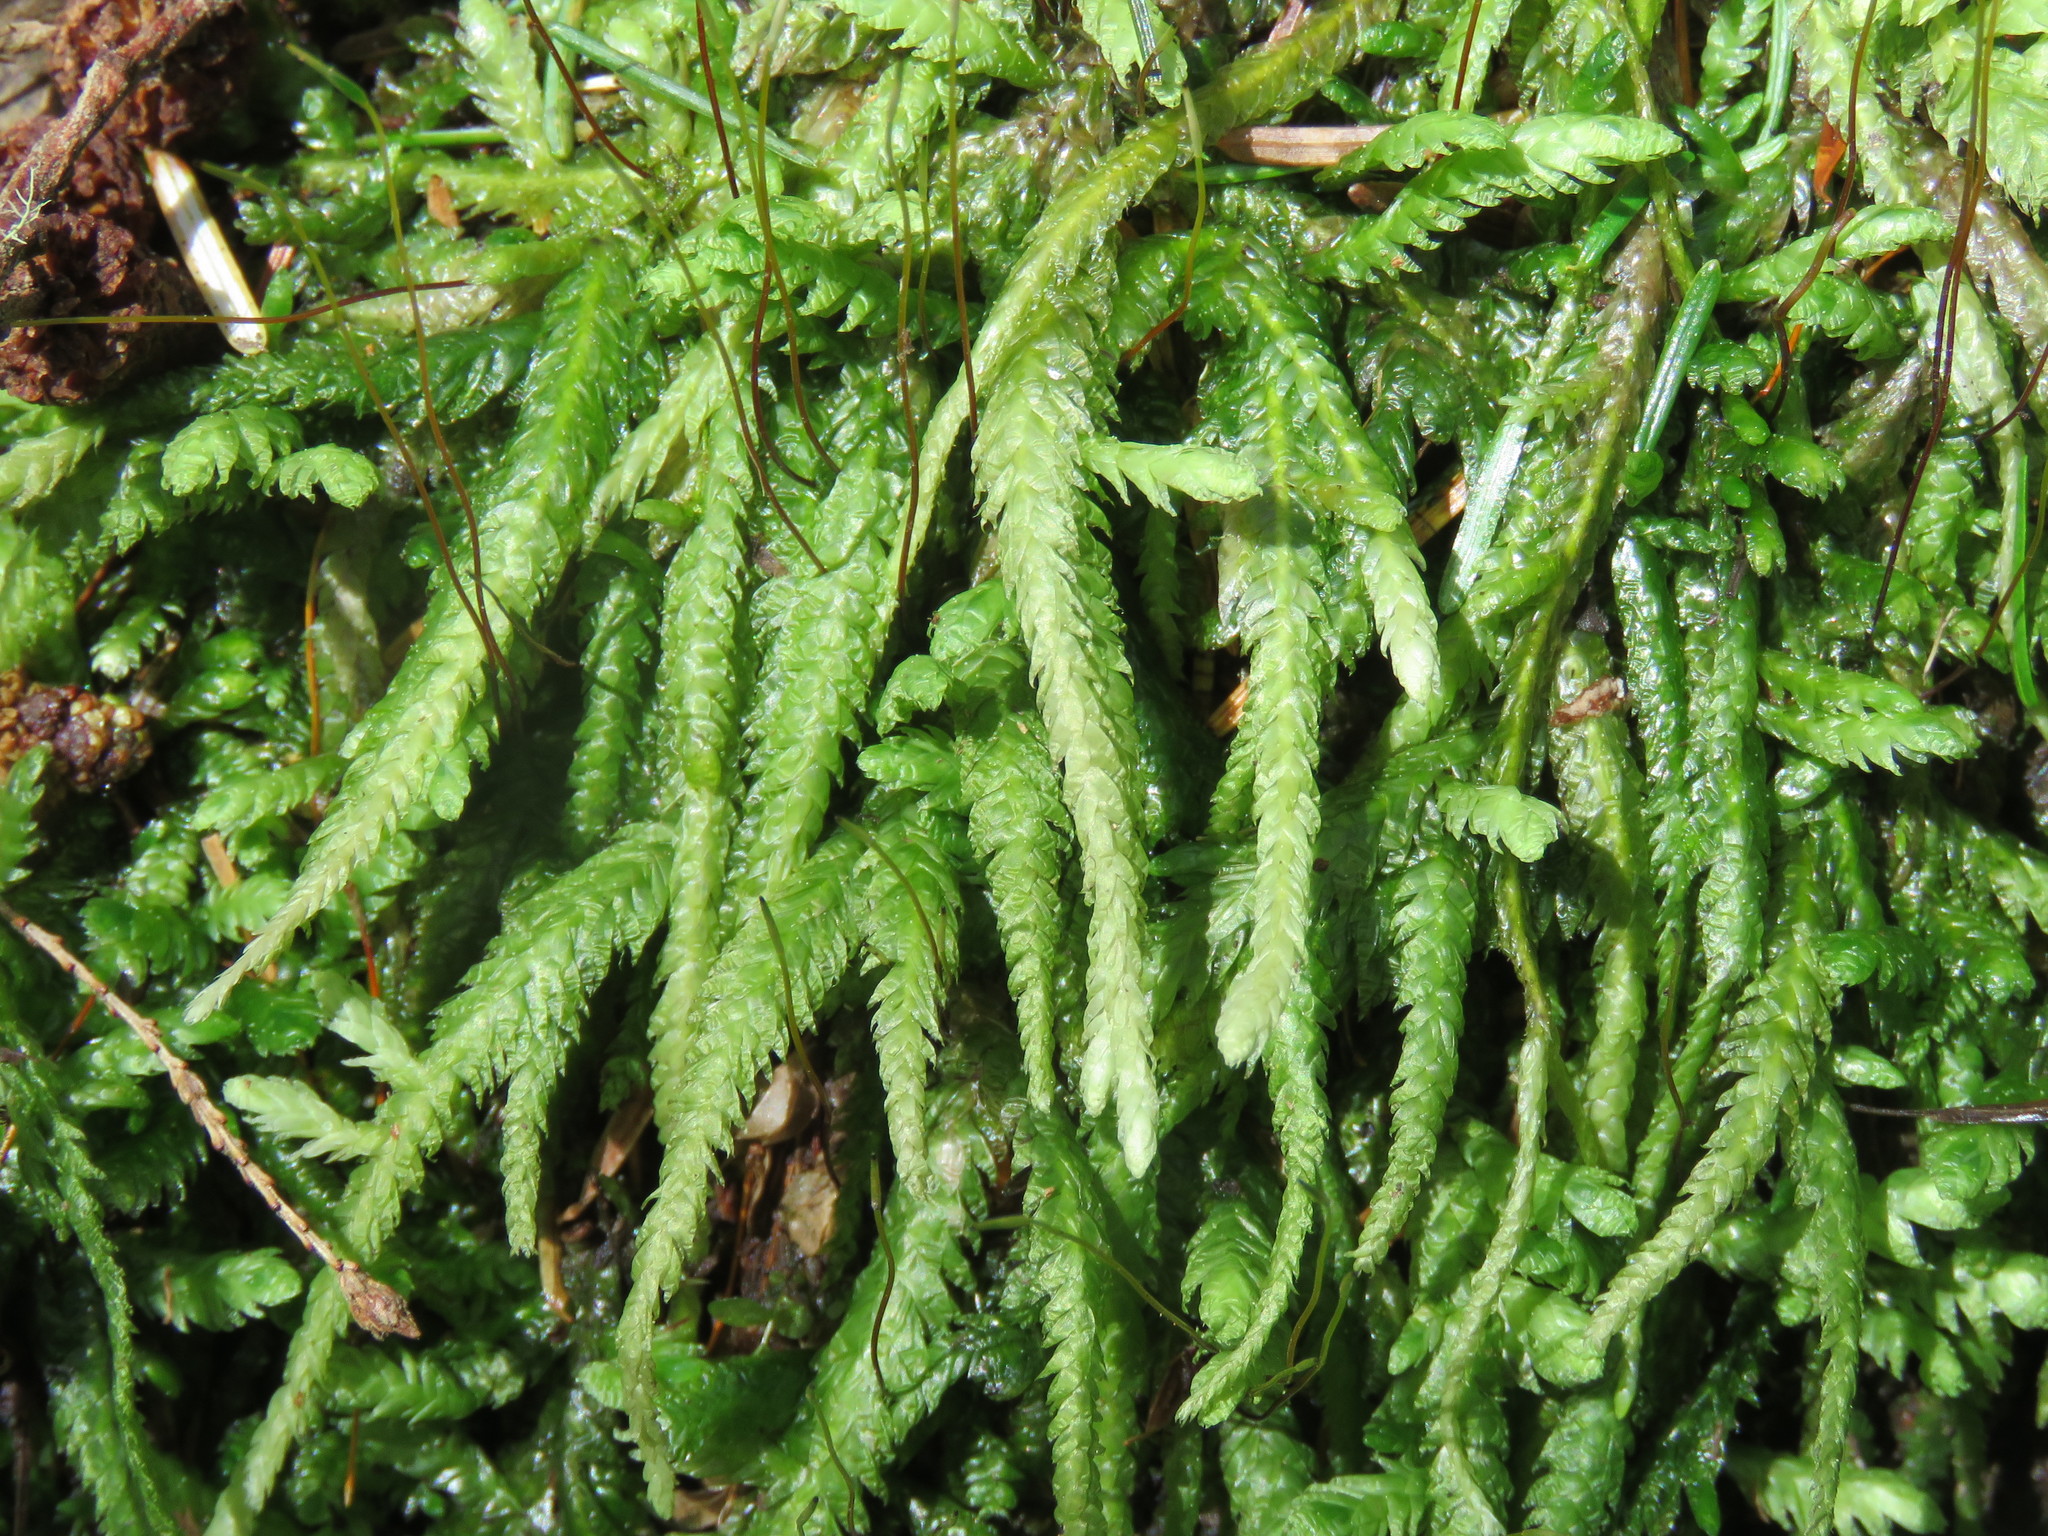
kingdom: Plantae
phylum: Bryophyta
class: Bryopsida
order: Hypnales
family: Plagiotheciaceae
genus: Plagiothecium
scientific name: Plagiothecium undulatum
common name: Waved silk-moss
